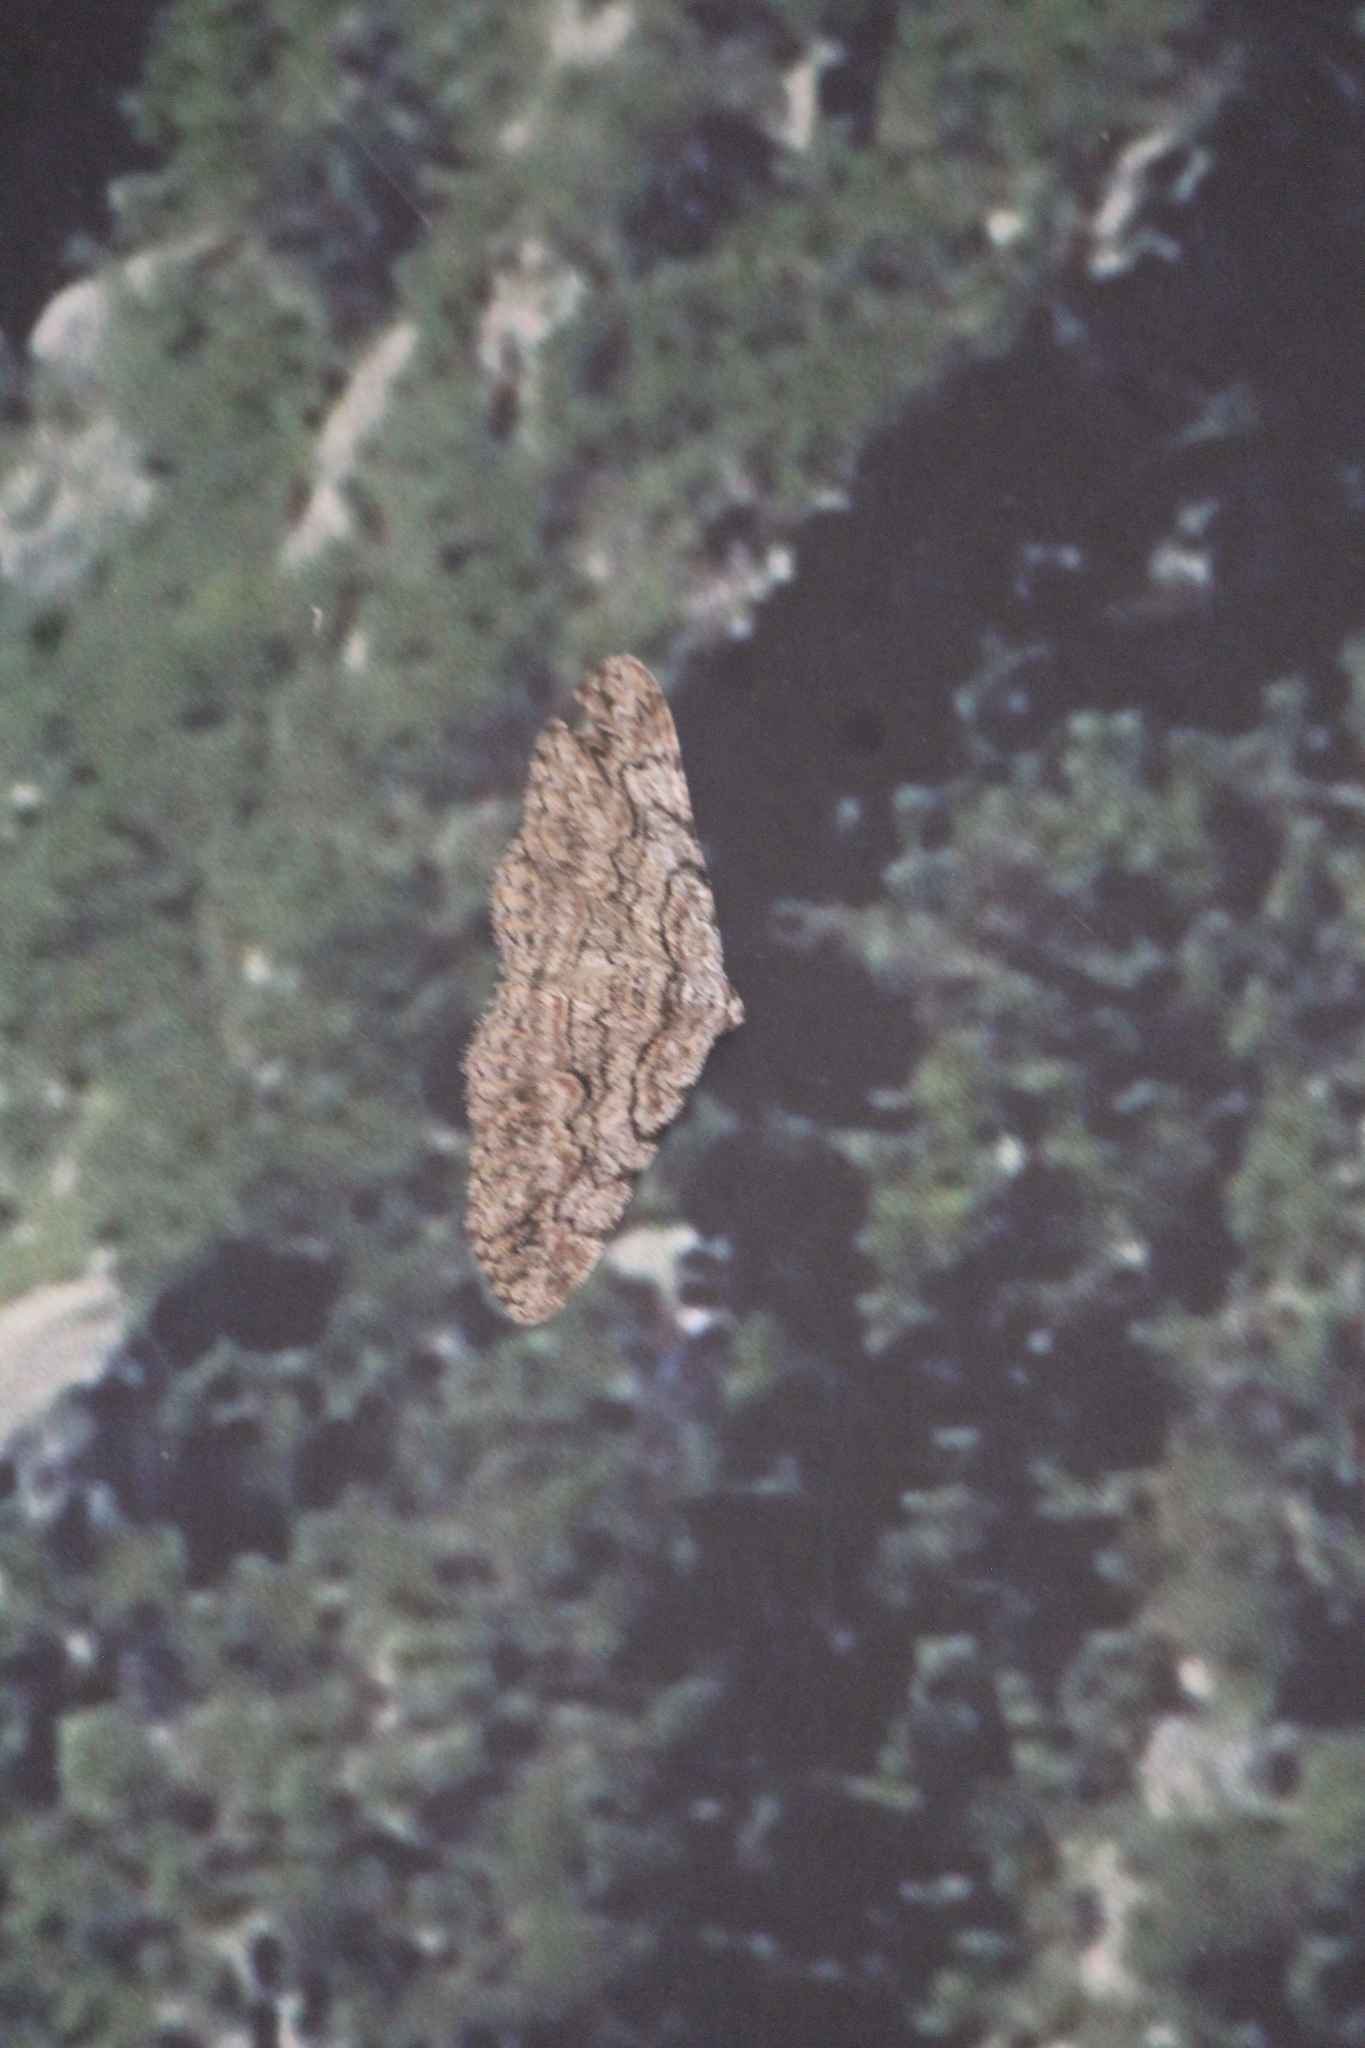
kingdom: Animalia
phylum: Arthropoda
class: Insecta
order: Lepidoptera
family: Geometridae
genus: Iridopsis
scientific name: Iridopsis defectaria
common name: Brown-shaded gray
